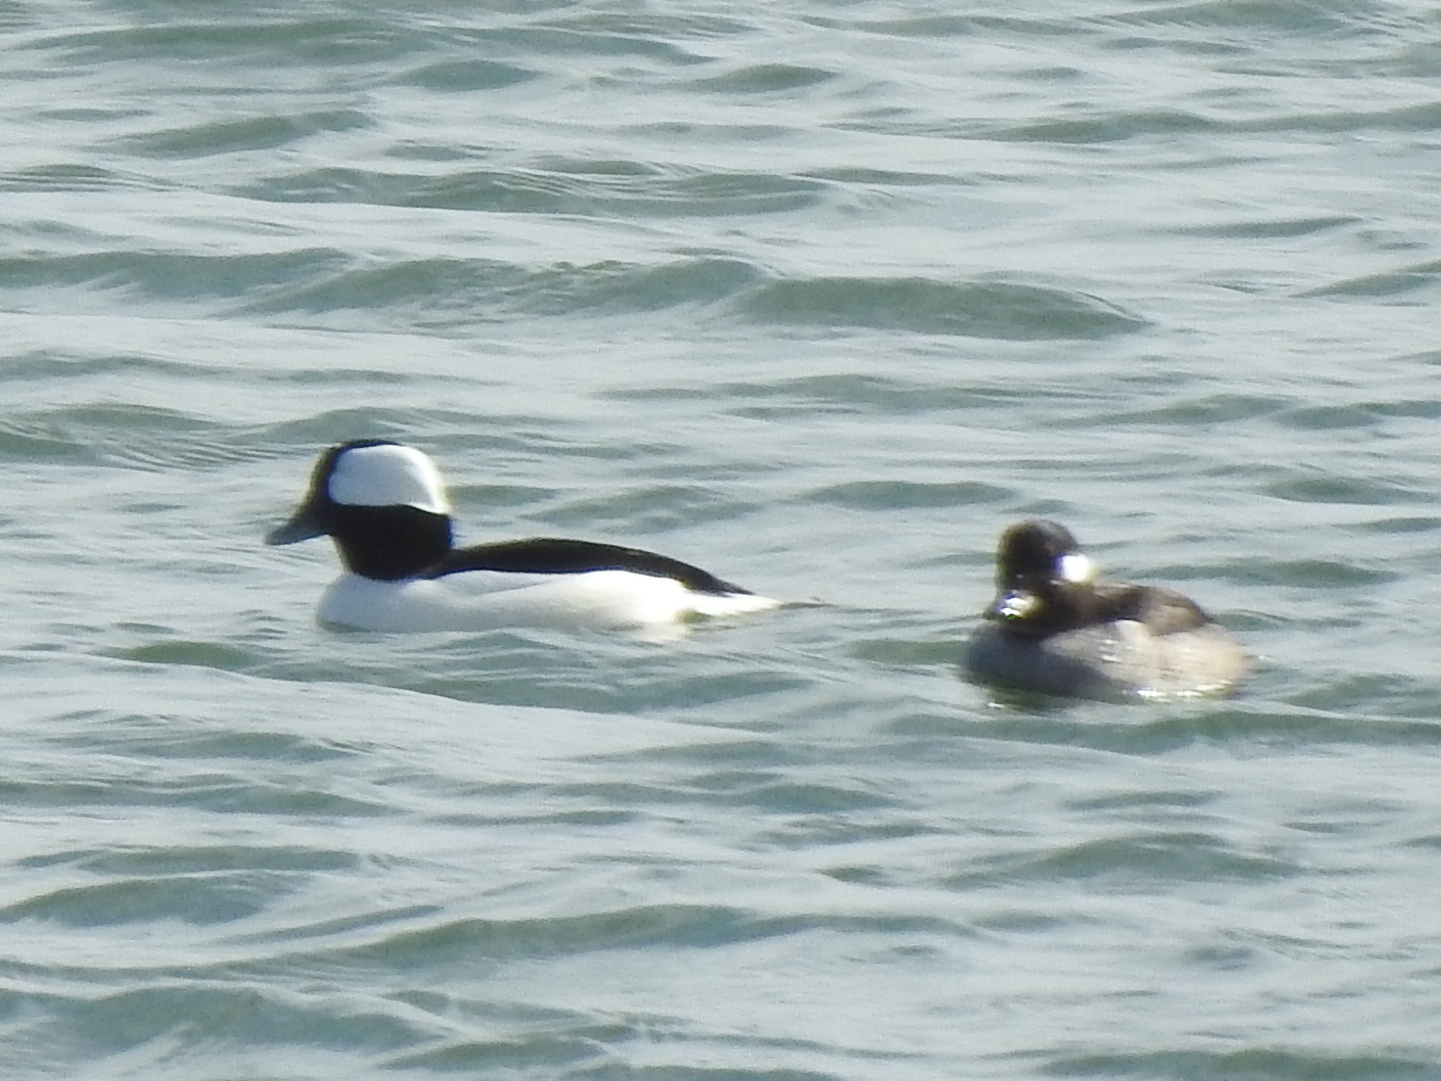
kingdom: Animalia
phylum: Chordata
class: Aves
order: Anseriformes
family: Anatidae
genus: Bucephala
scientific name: Bucephala albeola
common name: Bufflehead
